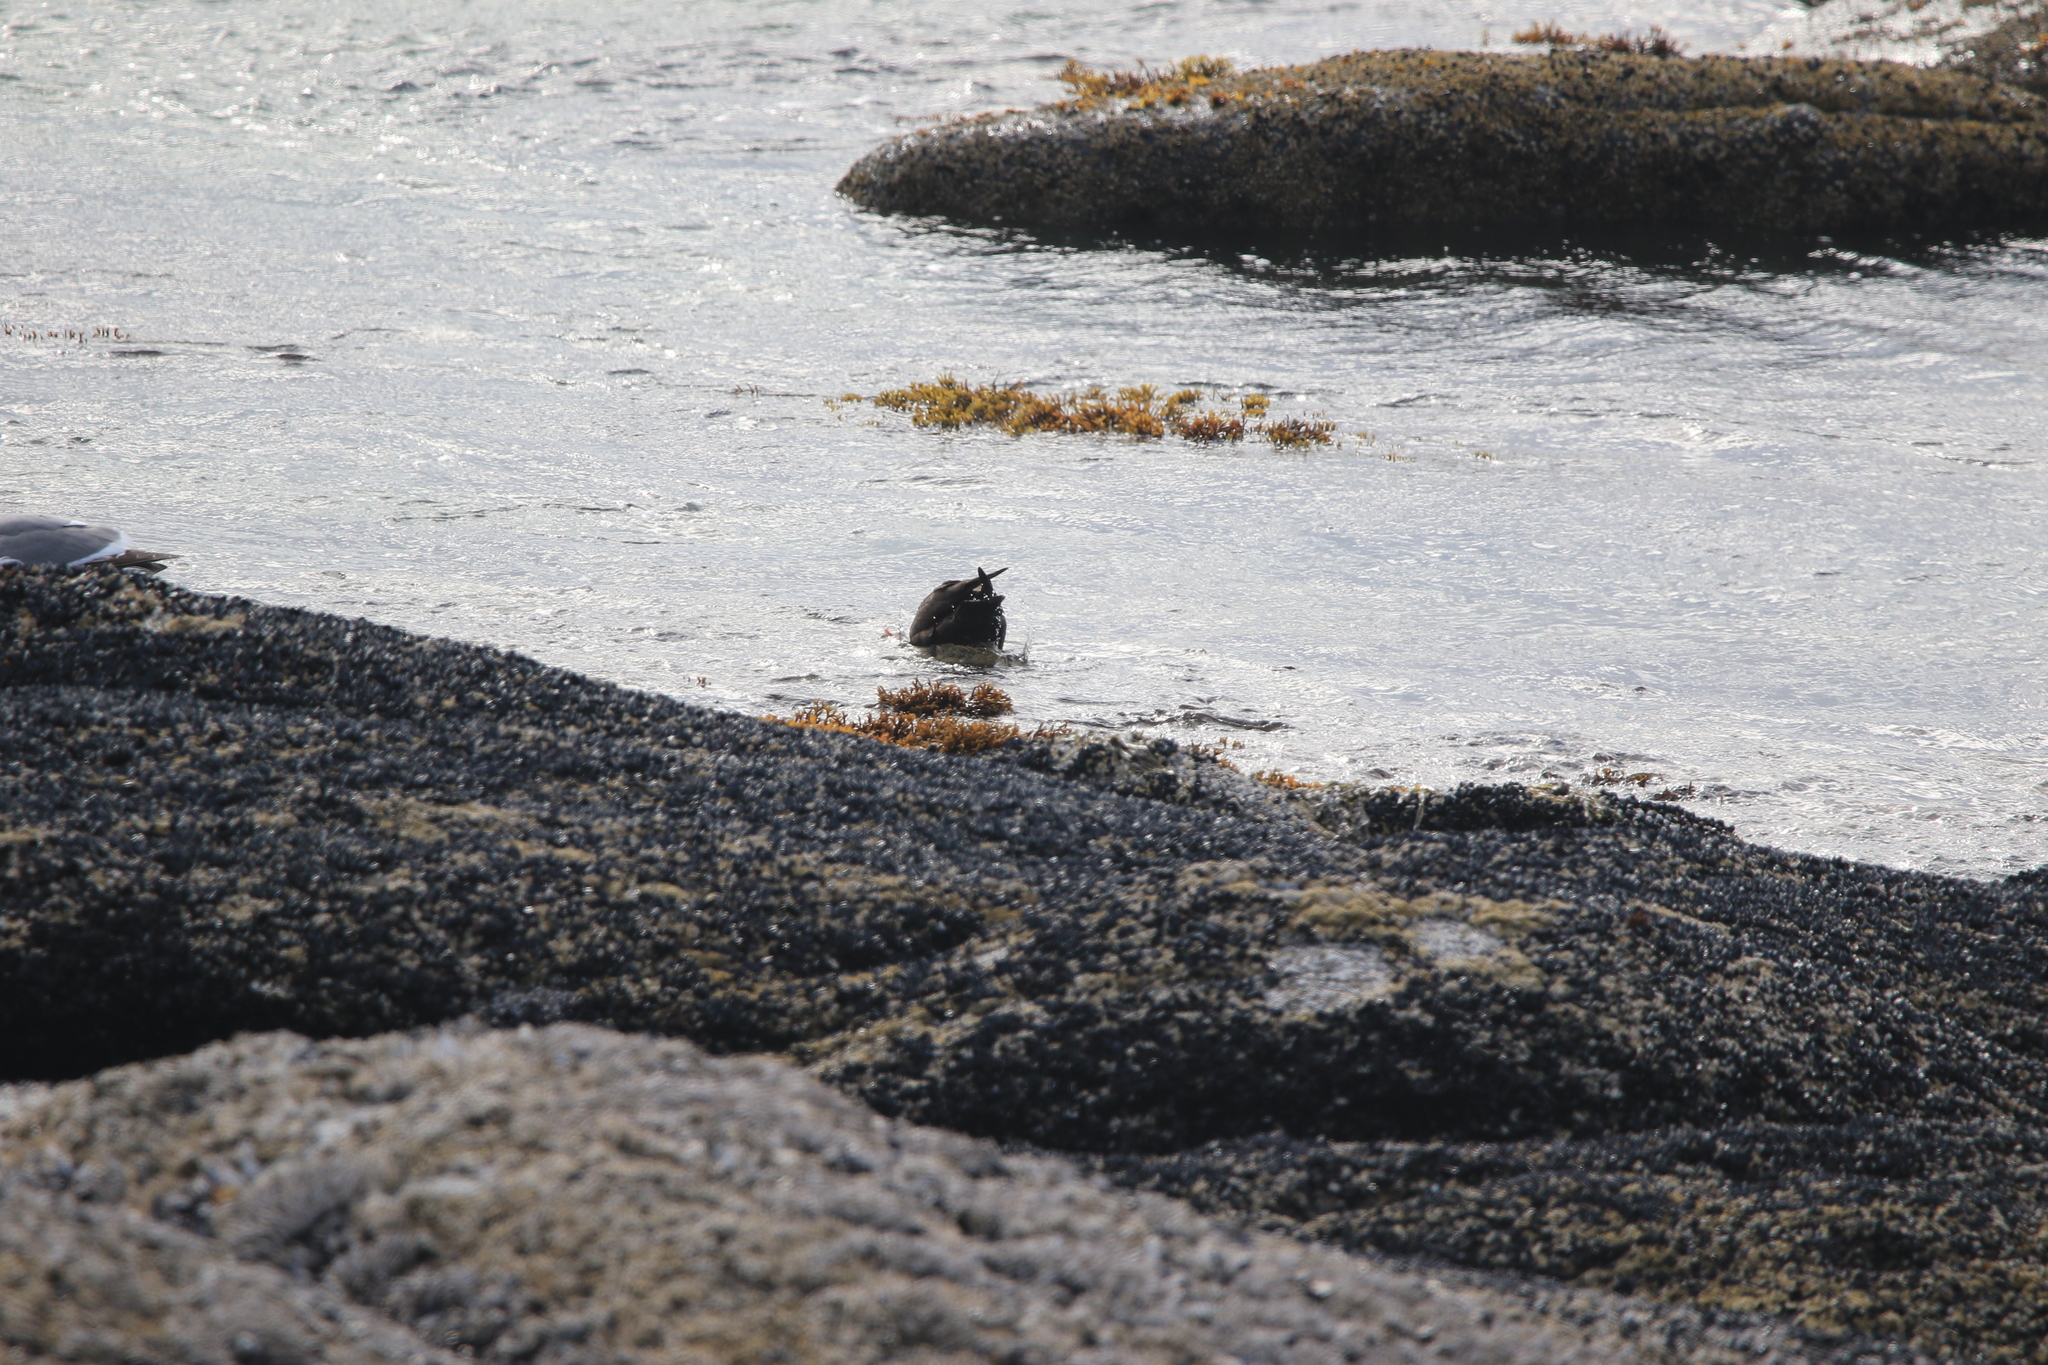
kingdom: Animalia
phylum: Chordata
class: Aves
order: Charadriiformes
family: Haematopodidae
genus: Haematopus
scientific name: Haematopus bachmani
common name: Black oystercatcher
